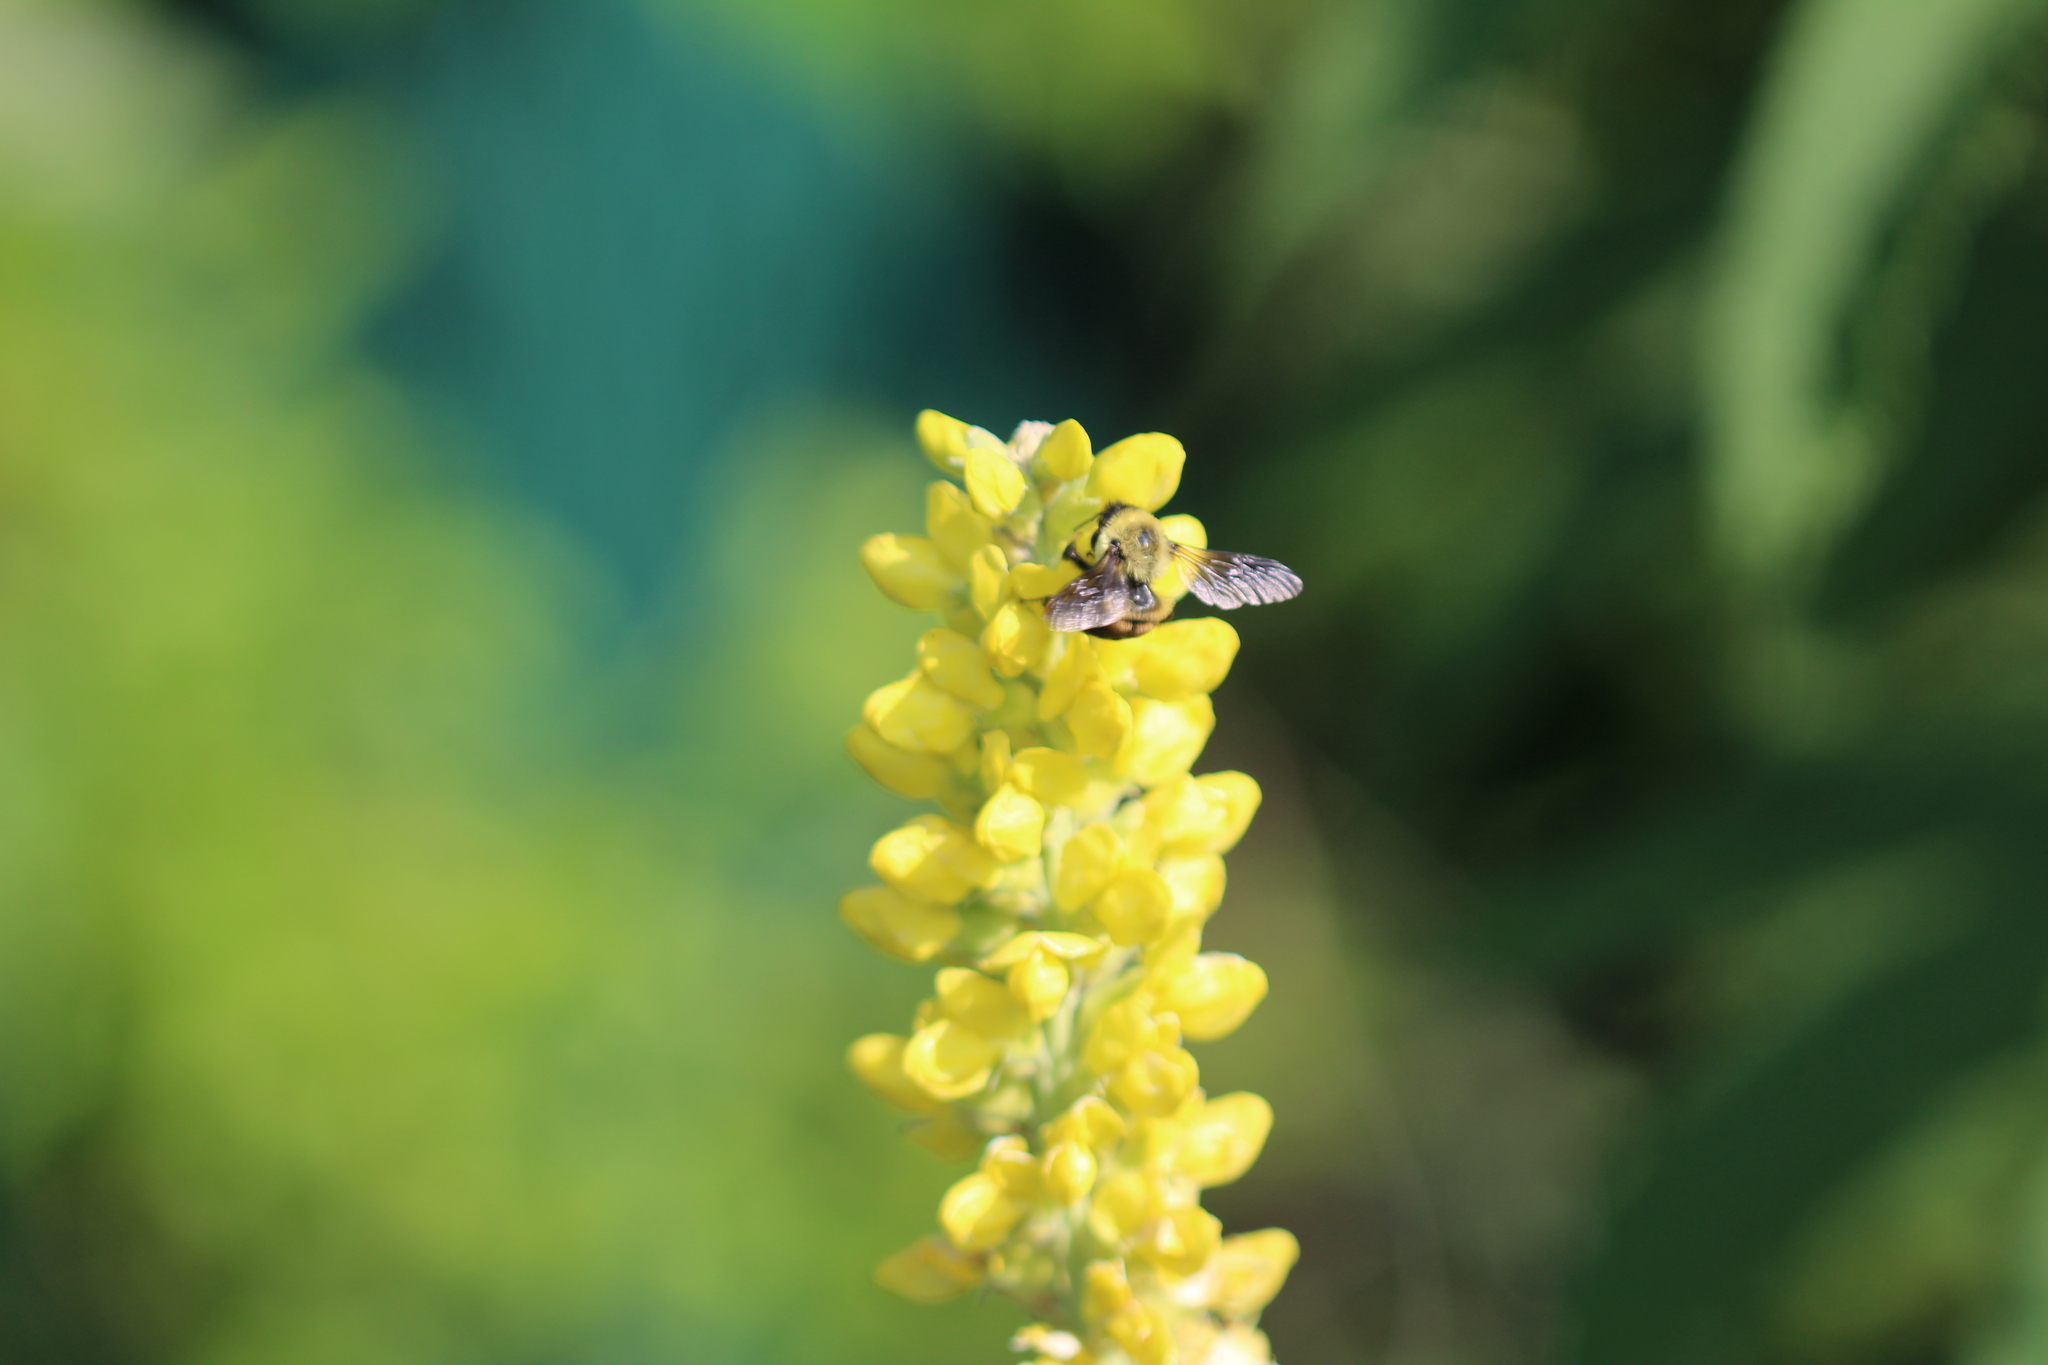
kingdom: Animalia
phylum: Arthropoda
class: Insecta
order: Hymenoptera
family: Apidae
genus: Bombus
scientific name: Bombus griseocollis
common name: Brown-belted bumble bee
